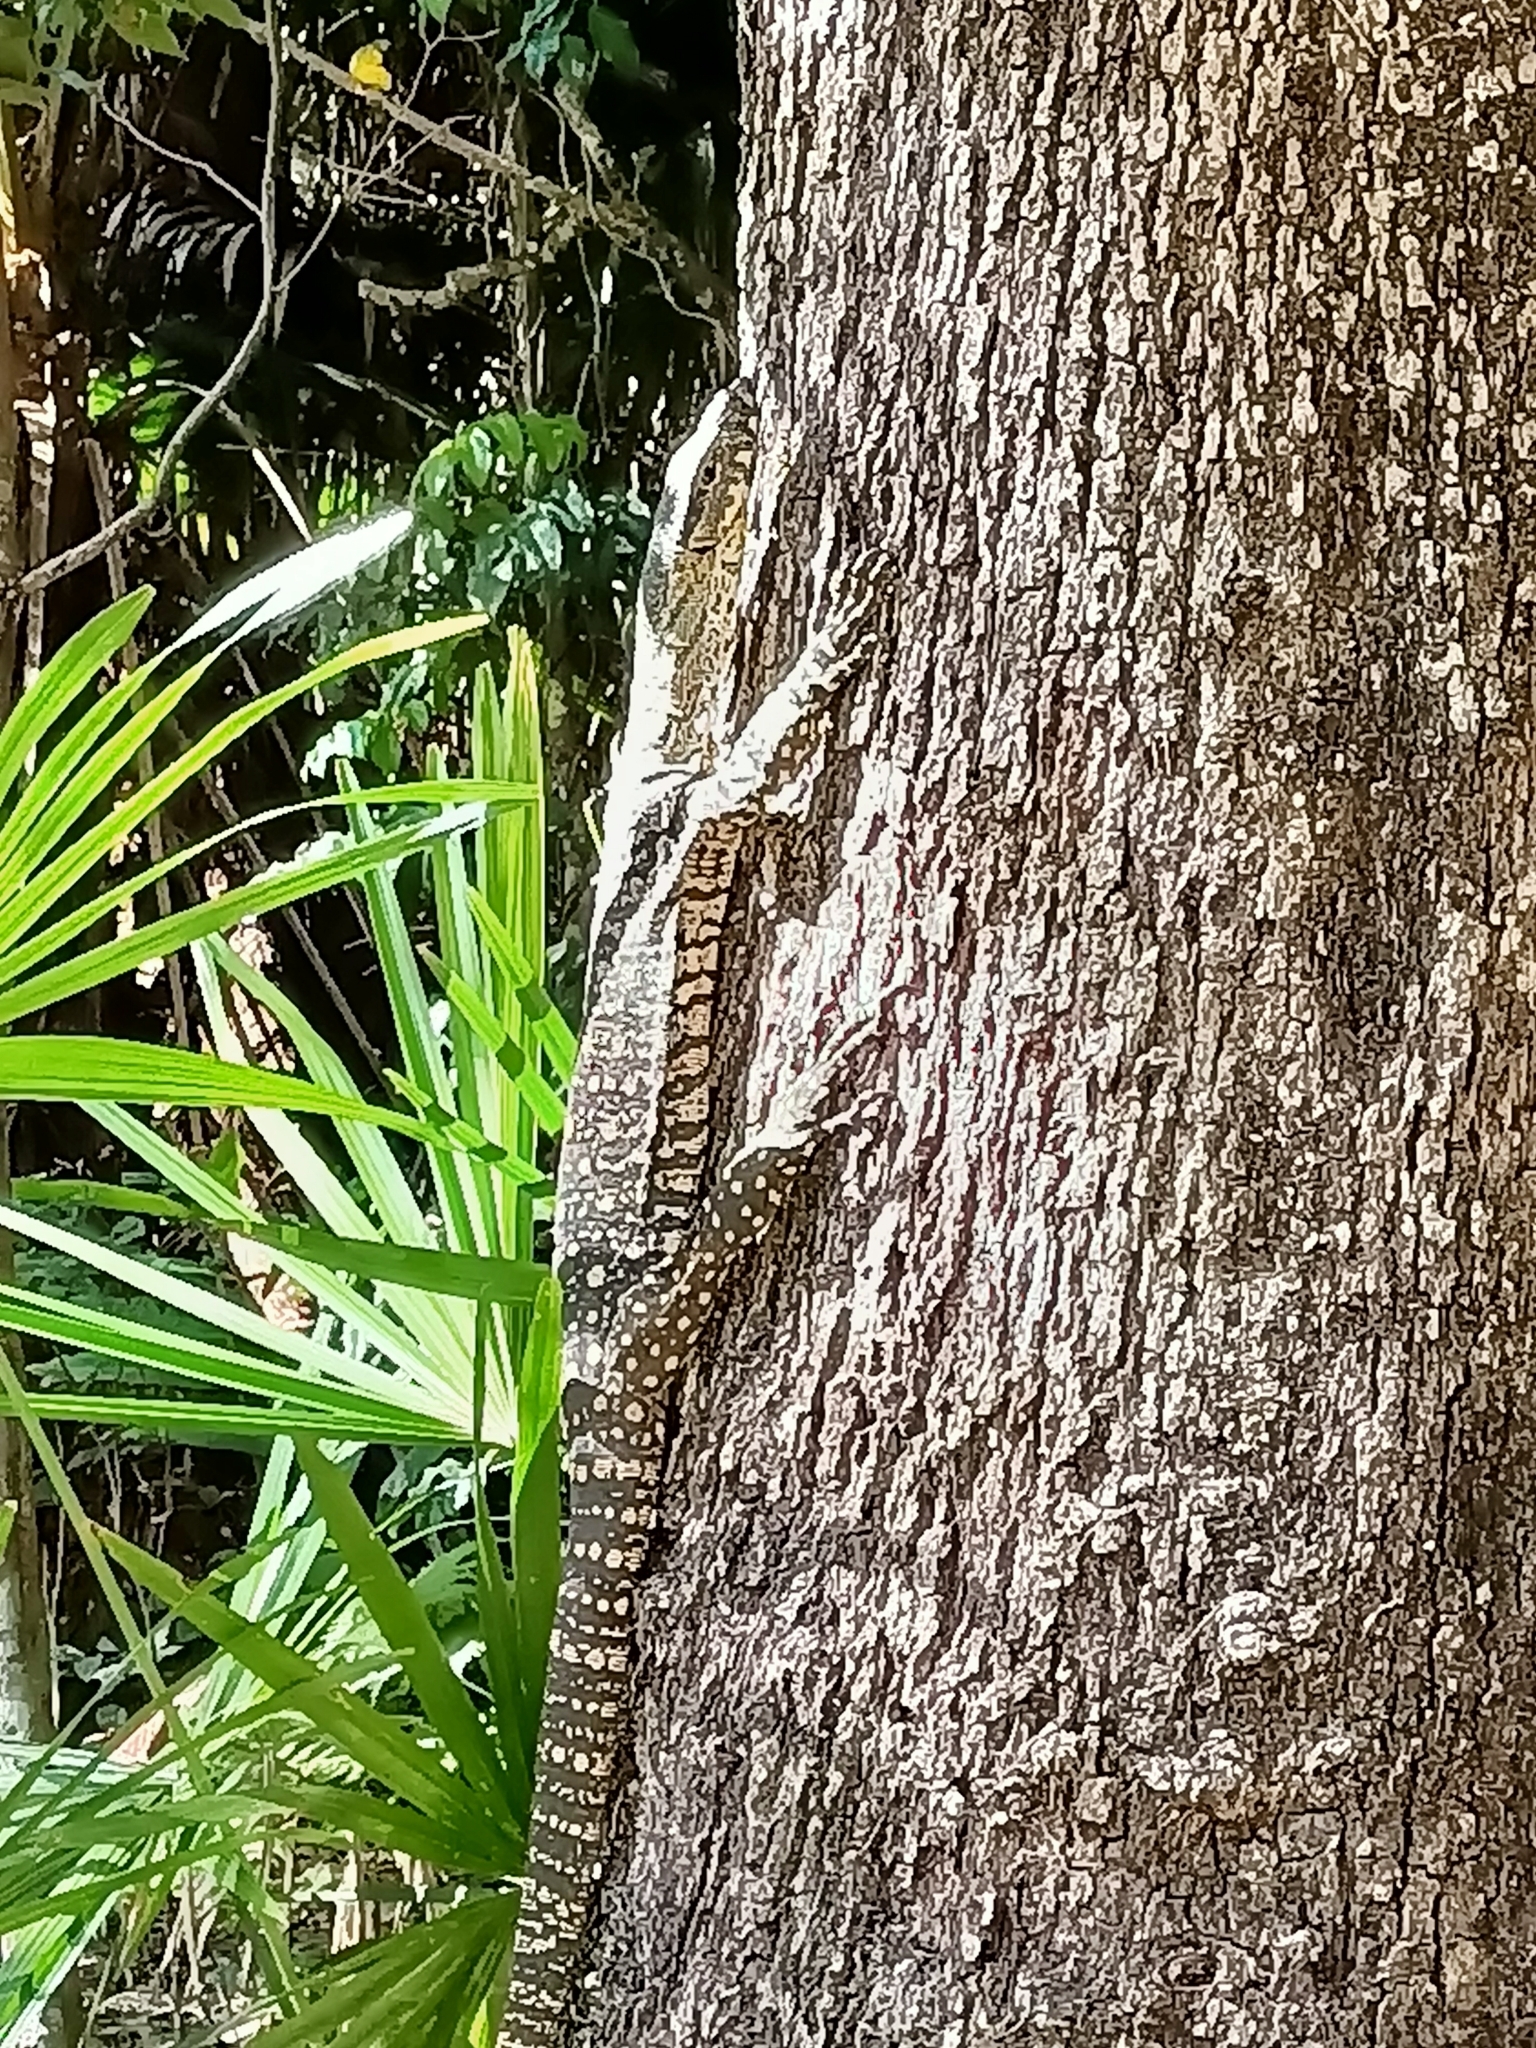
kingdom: Animalia
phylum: Chordata
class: Squamata
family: Varanidae
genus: Varanus
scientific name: Varanus varius
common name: Lace monitor
